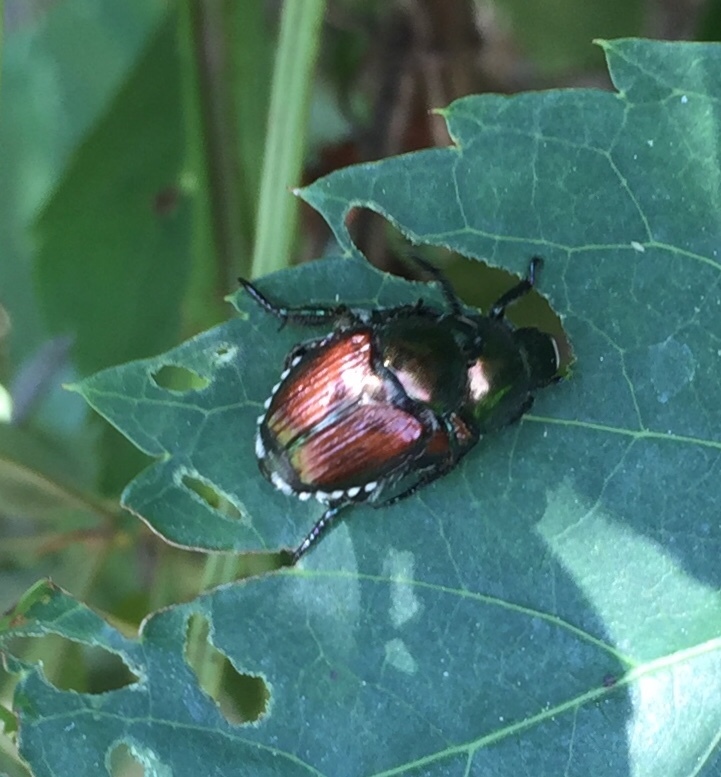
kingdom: Animalia
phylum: Arthropoda
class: Insecta
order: Coleoptera
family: Scarabaeidae
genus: Popillia
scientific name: Popillia japonica
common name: Japanese beetle
